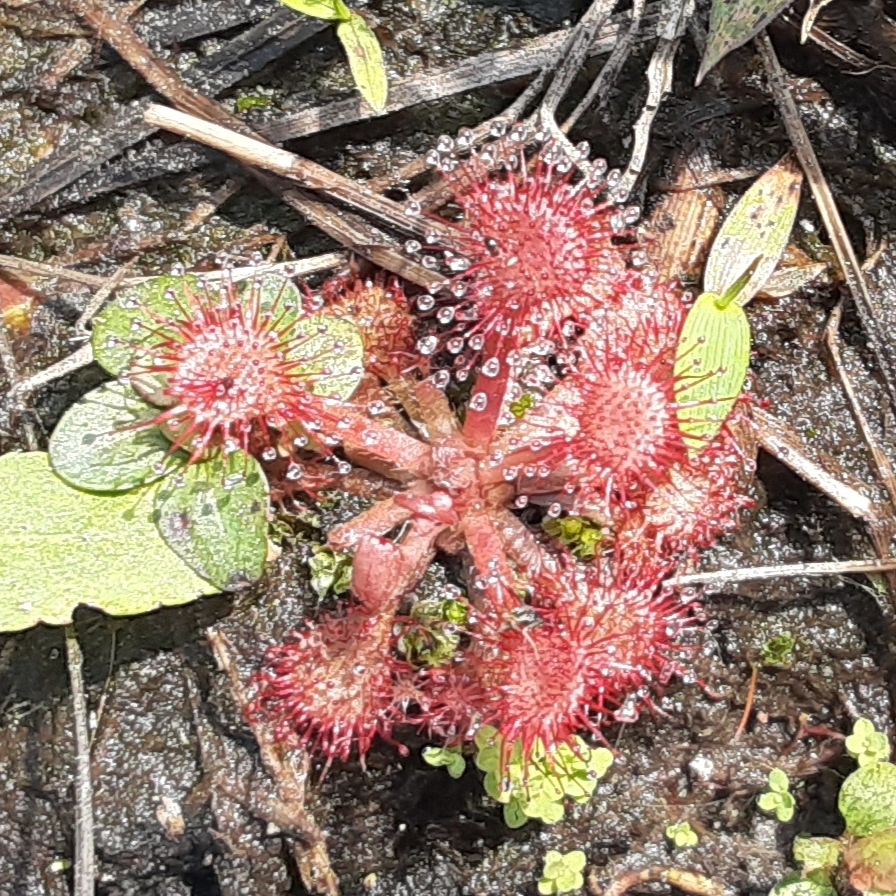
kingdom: Plantae
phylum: Tracheophyta
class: Magnoliopsida
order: Caryophyllales
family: Droseraceae
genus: Drosera
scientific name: Drosera capillaris
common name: Pink sundew
